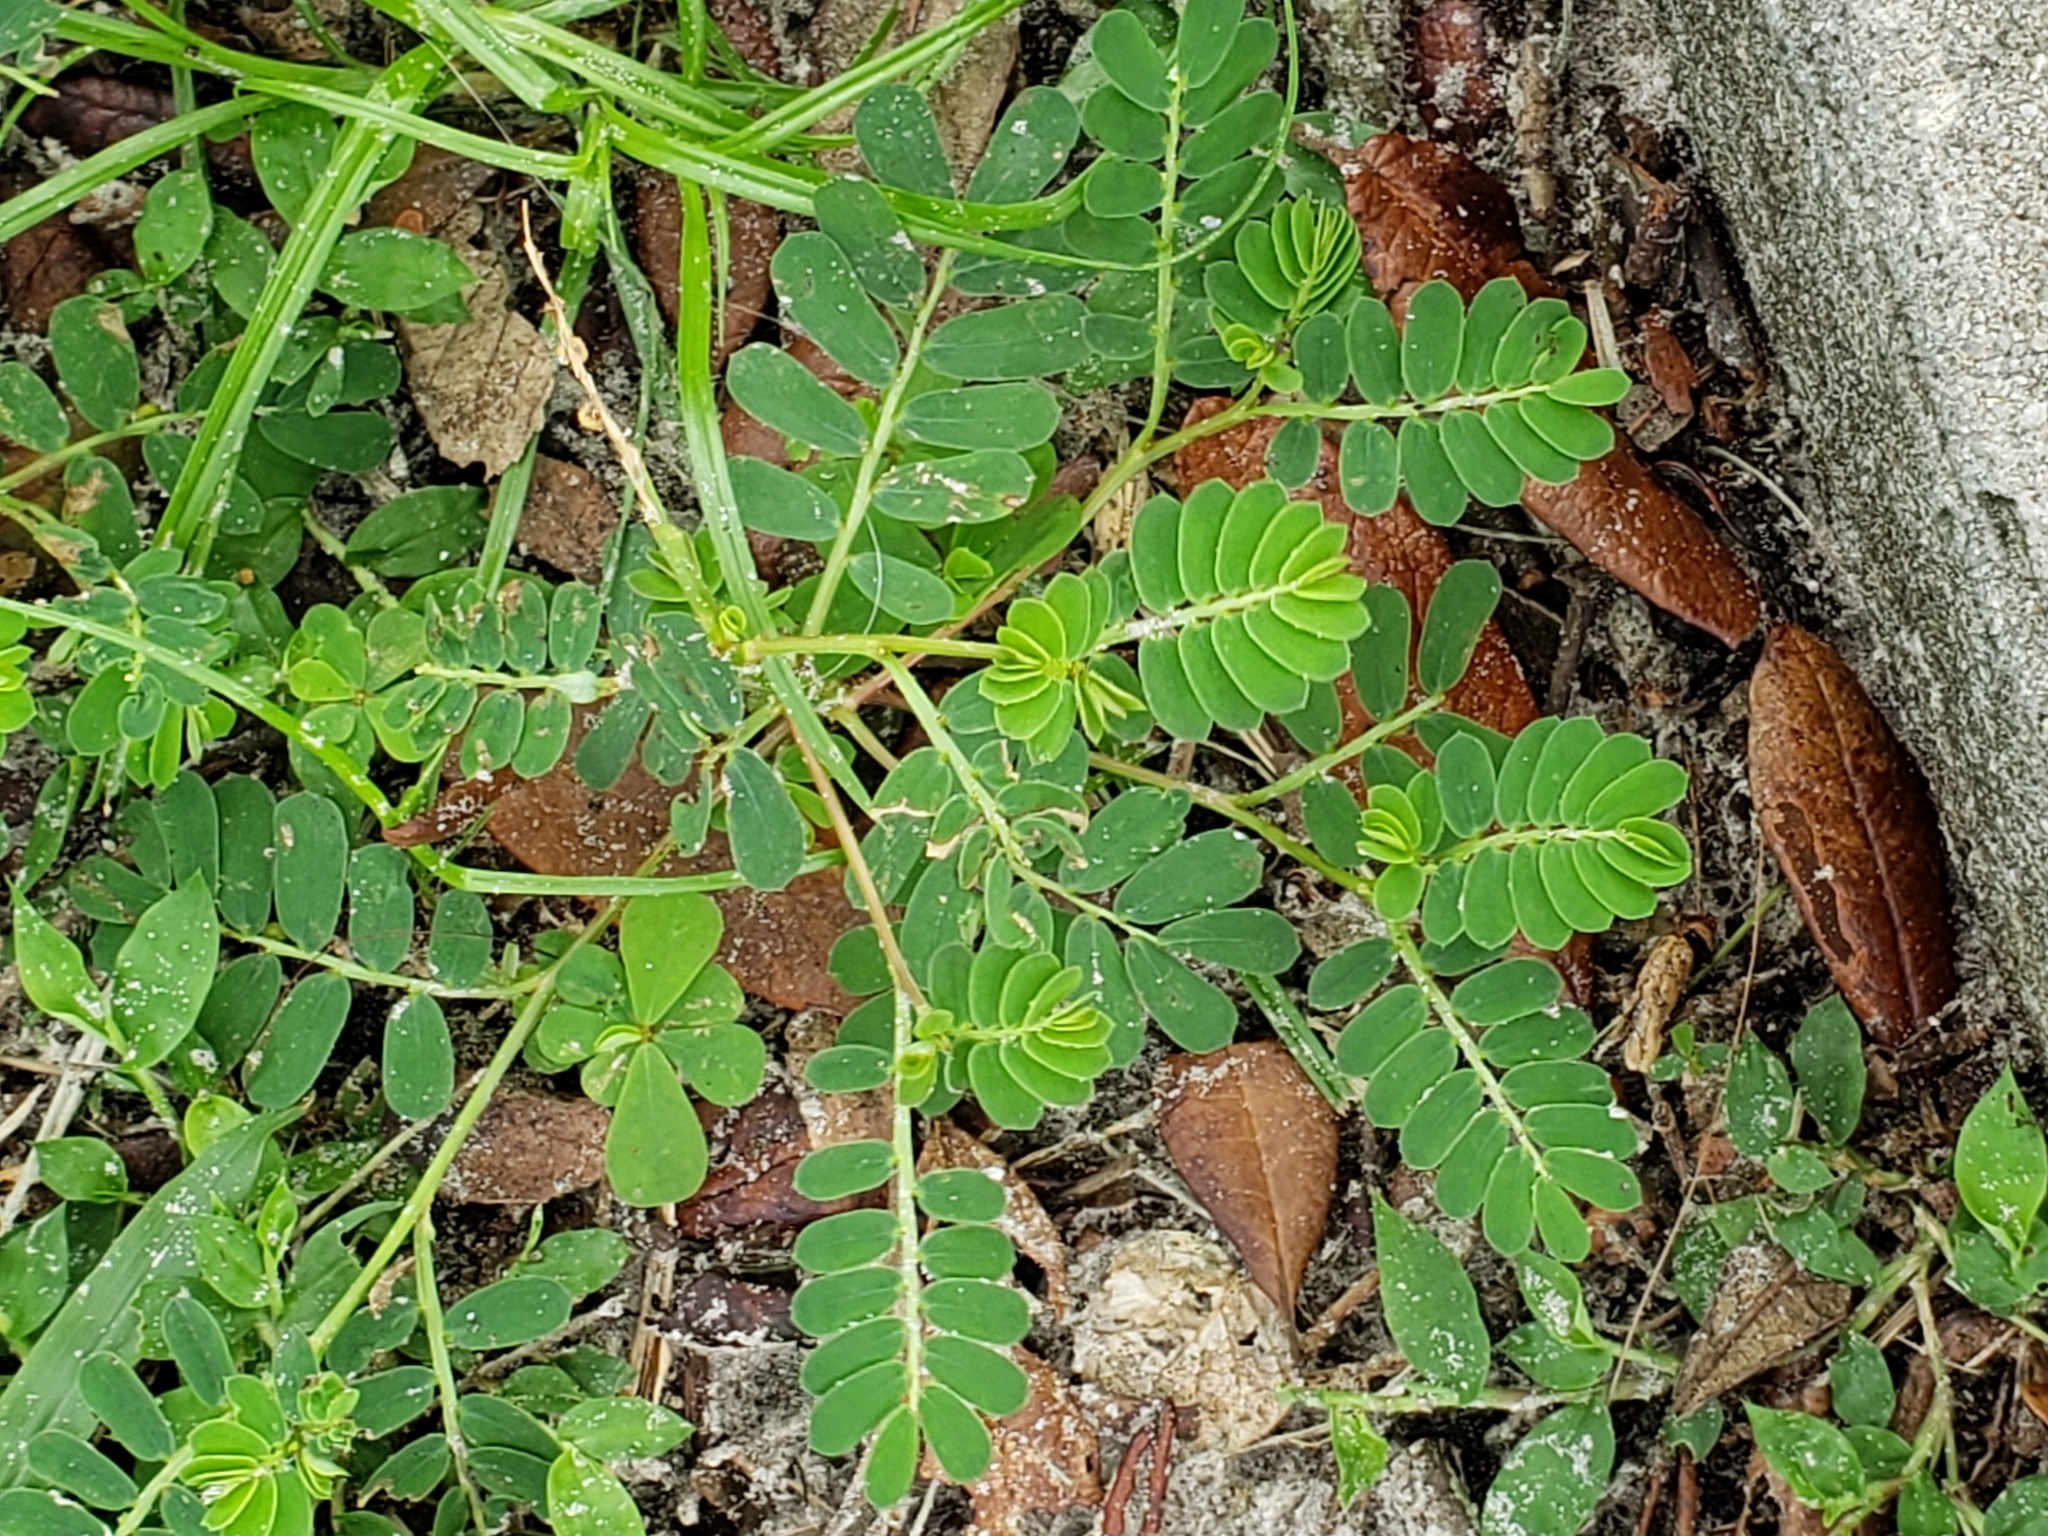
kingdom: Plantae
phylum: Tracheophyta
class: Magnoliopsida
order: Malpighiales
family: Phyllanthaceae
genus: Phyllanthus
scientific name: Phyllanthus urinaria
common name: Chamber bitter
